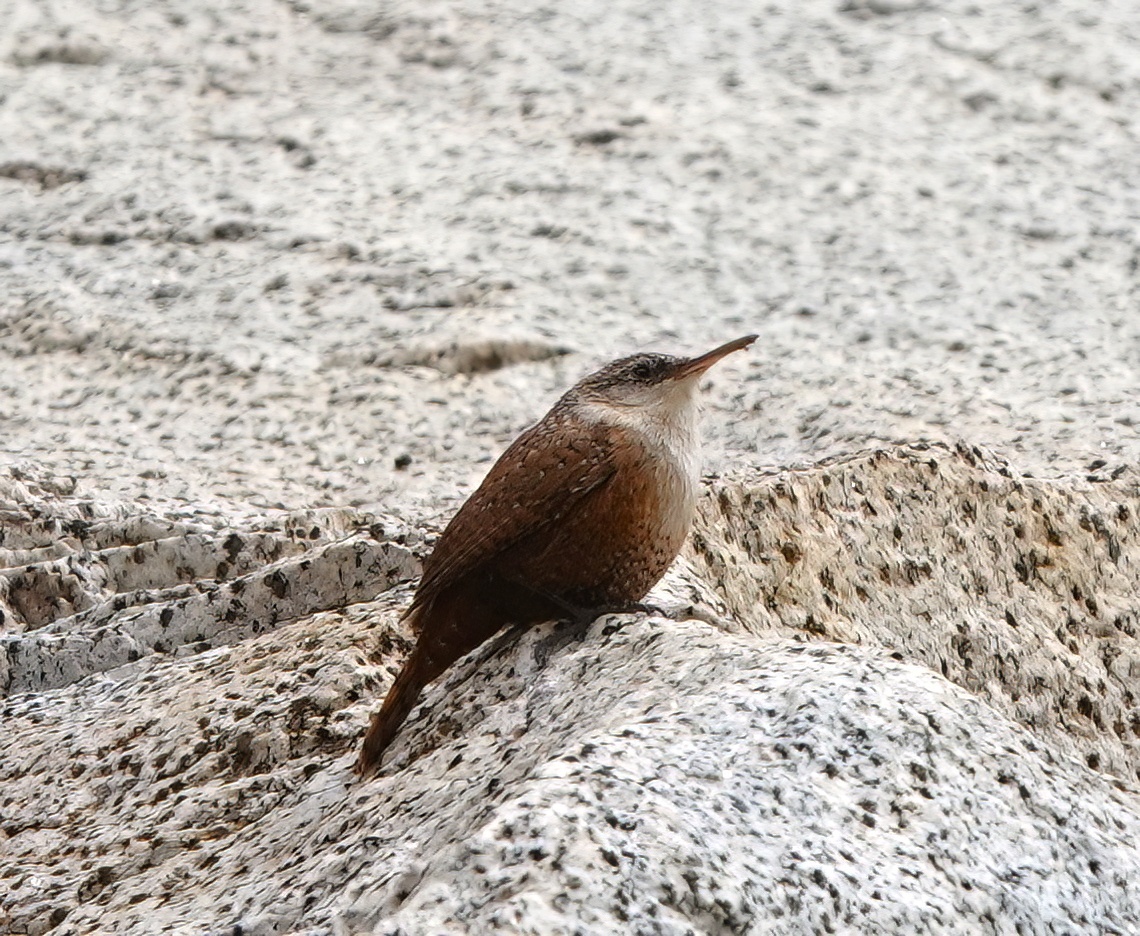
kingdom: Animalia
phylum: Chordata
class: Aves
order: Passeriformes
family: Troglodytidae
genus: Catherpes
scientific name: Catherpes mexicanus
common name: Canyon wren
